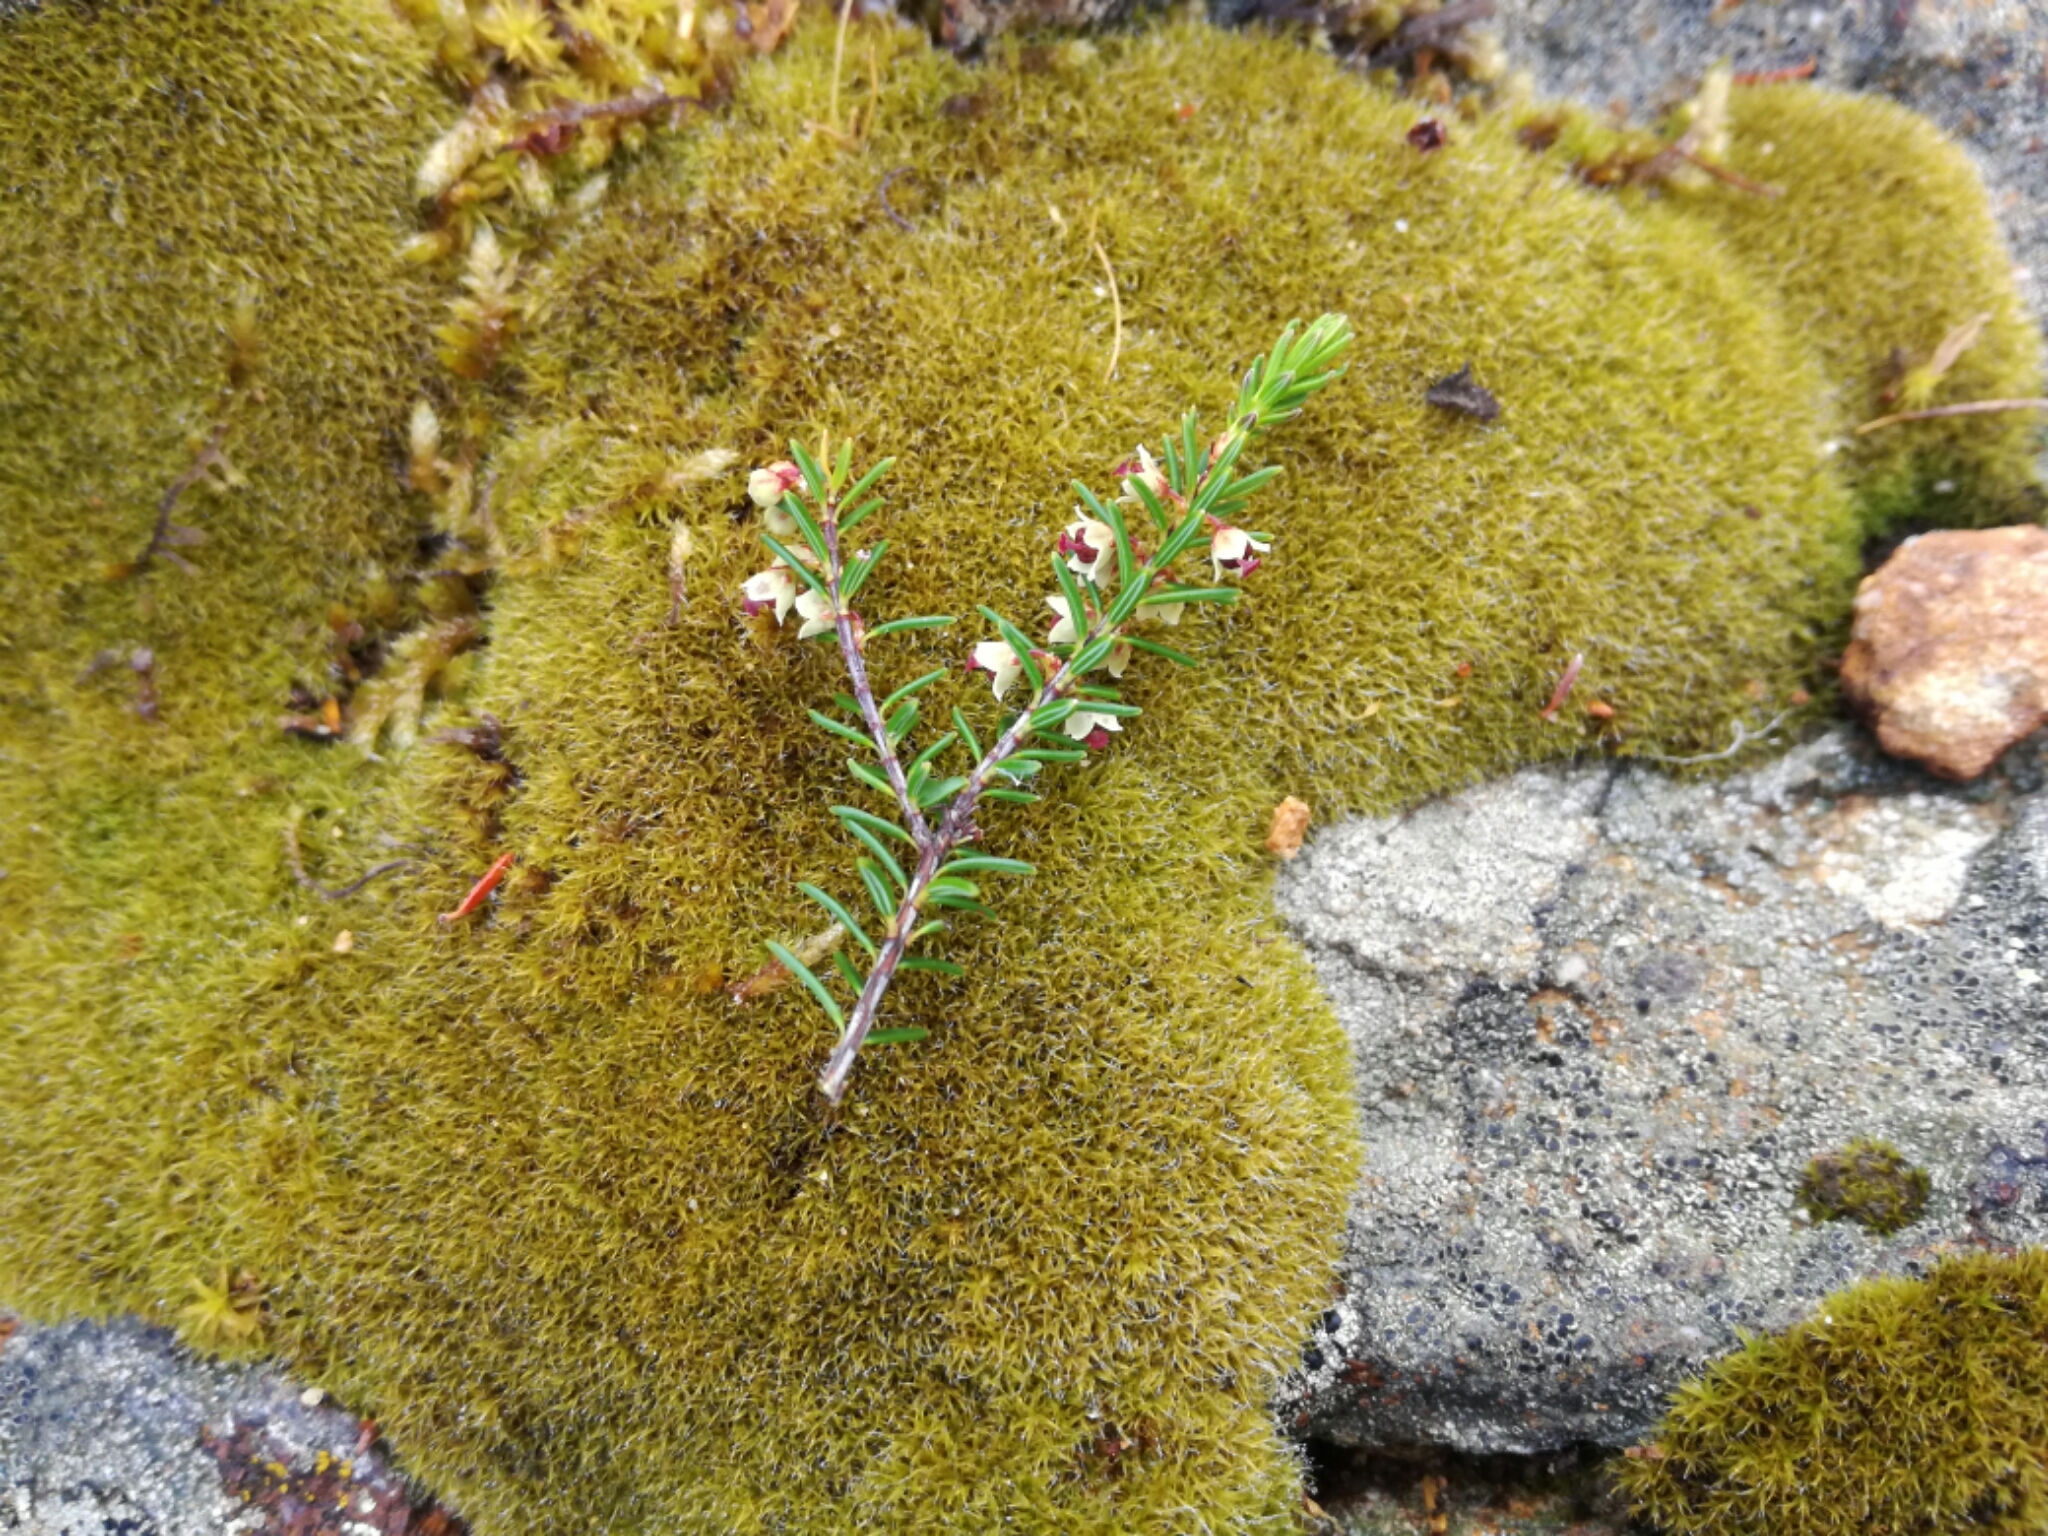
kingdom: Plantae
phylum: Tracheophyta
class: Magnoliopsida
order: Ericales
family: Ericaceae
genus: Erica
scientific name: Erica scoparia
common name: Green heather
